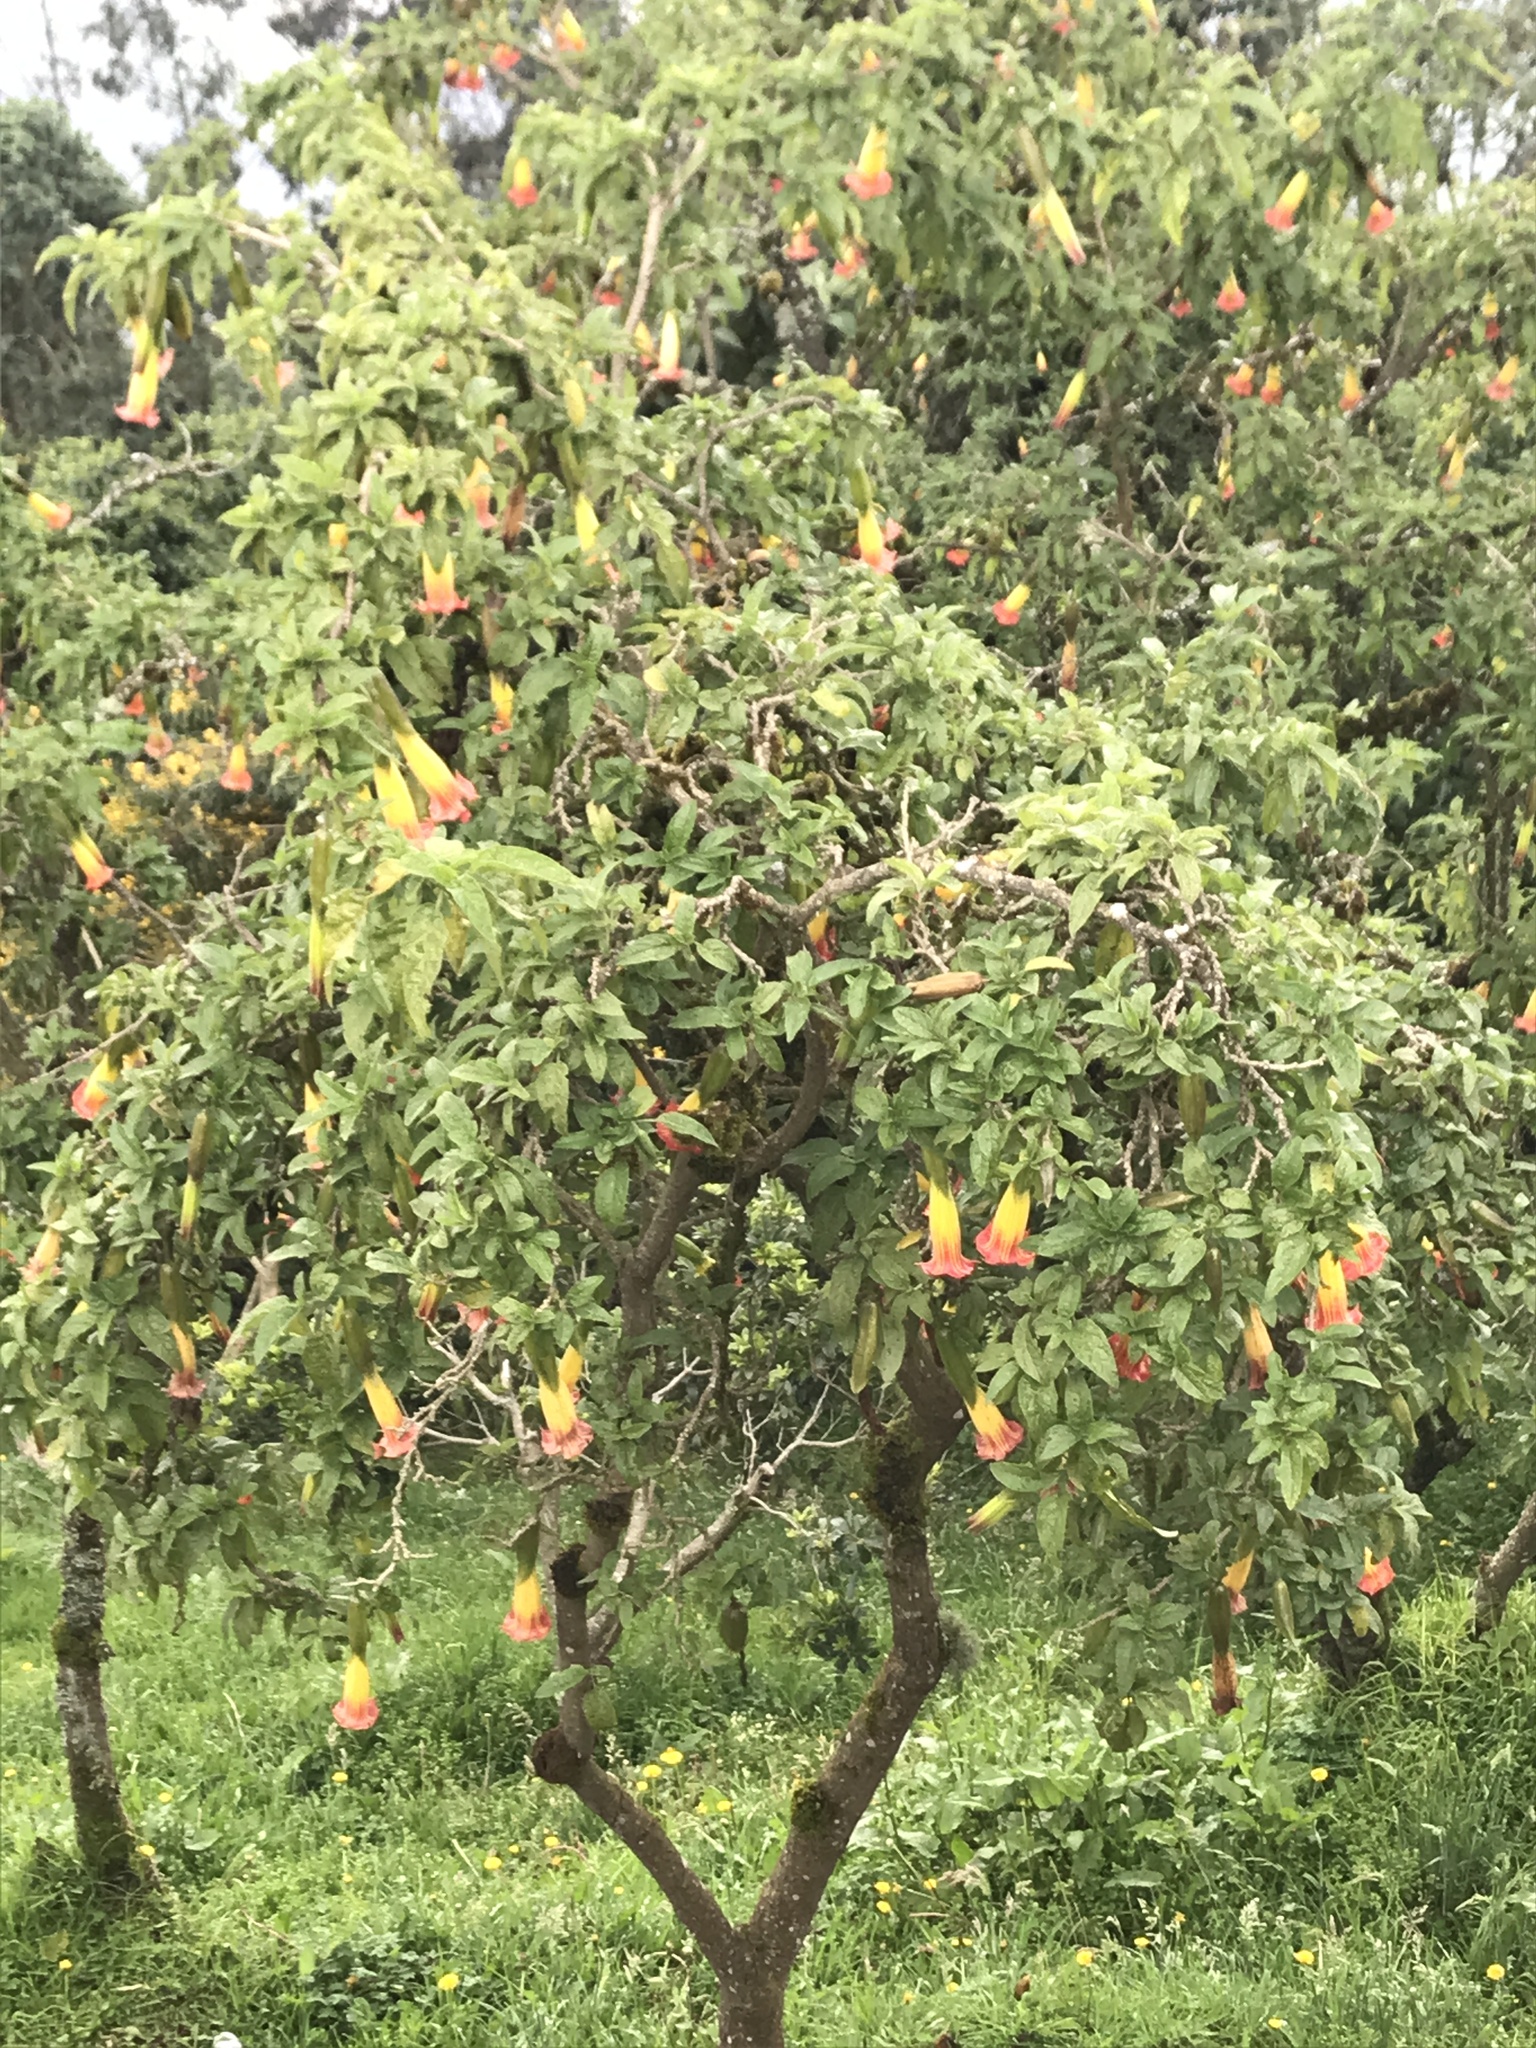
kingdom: Plantae
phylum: Tracheophyta
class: Magnoliopsida
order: Solanales
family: Solanaceae
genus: Brugmansia
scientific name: Brugmansia sanguinea
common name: Red floripontio
